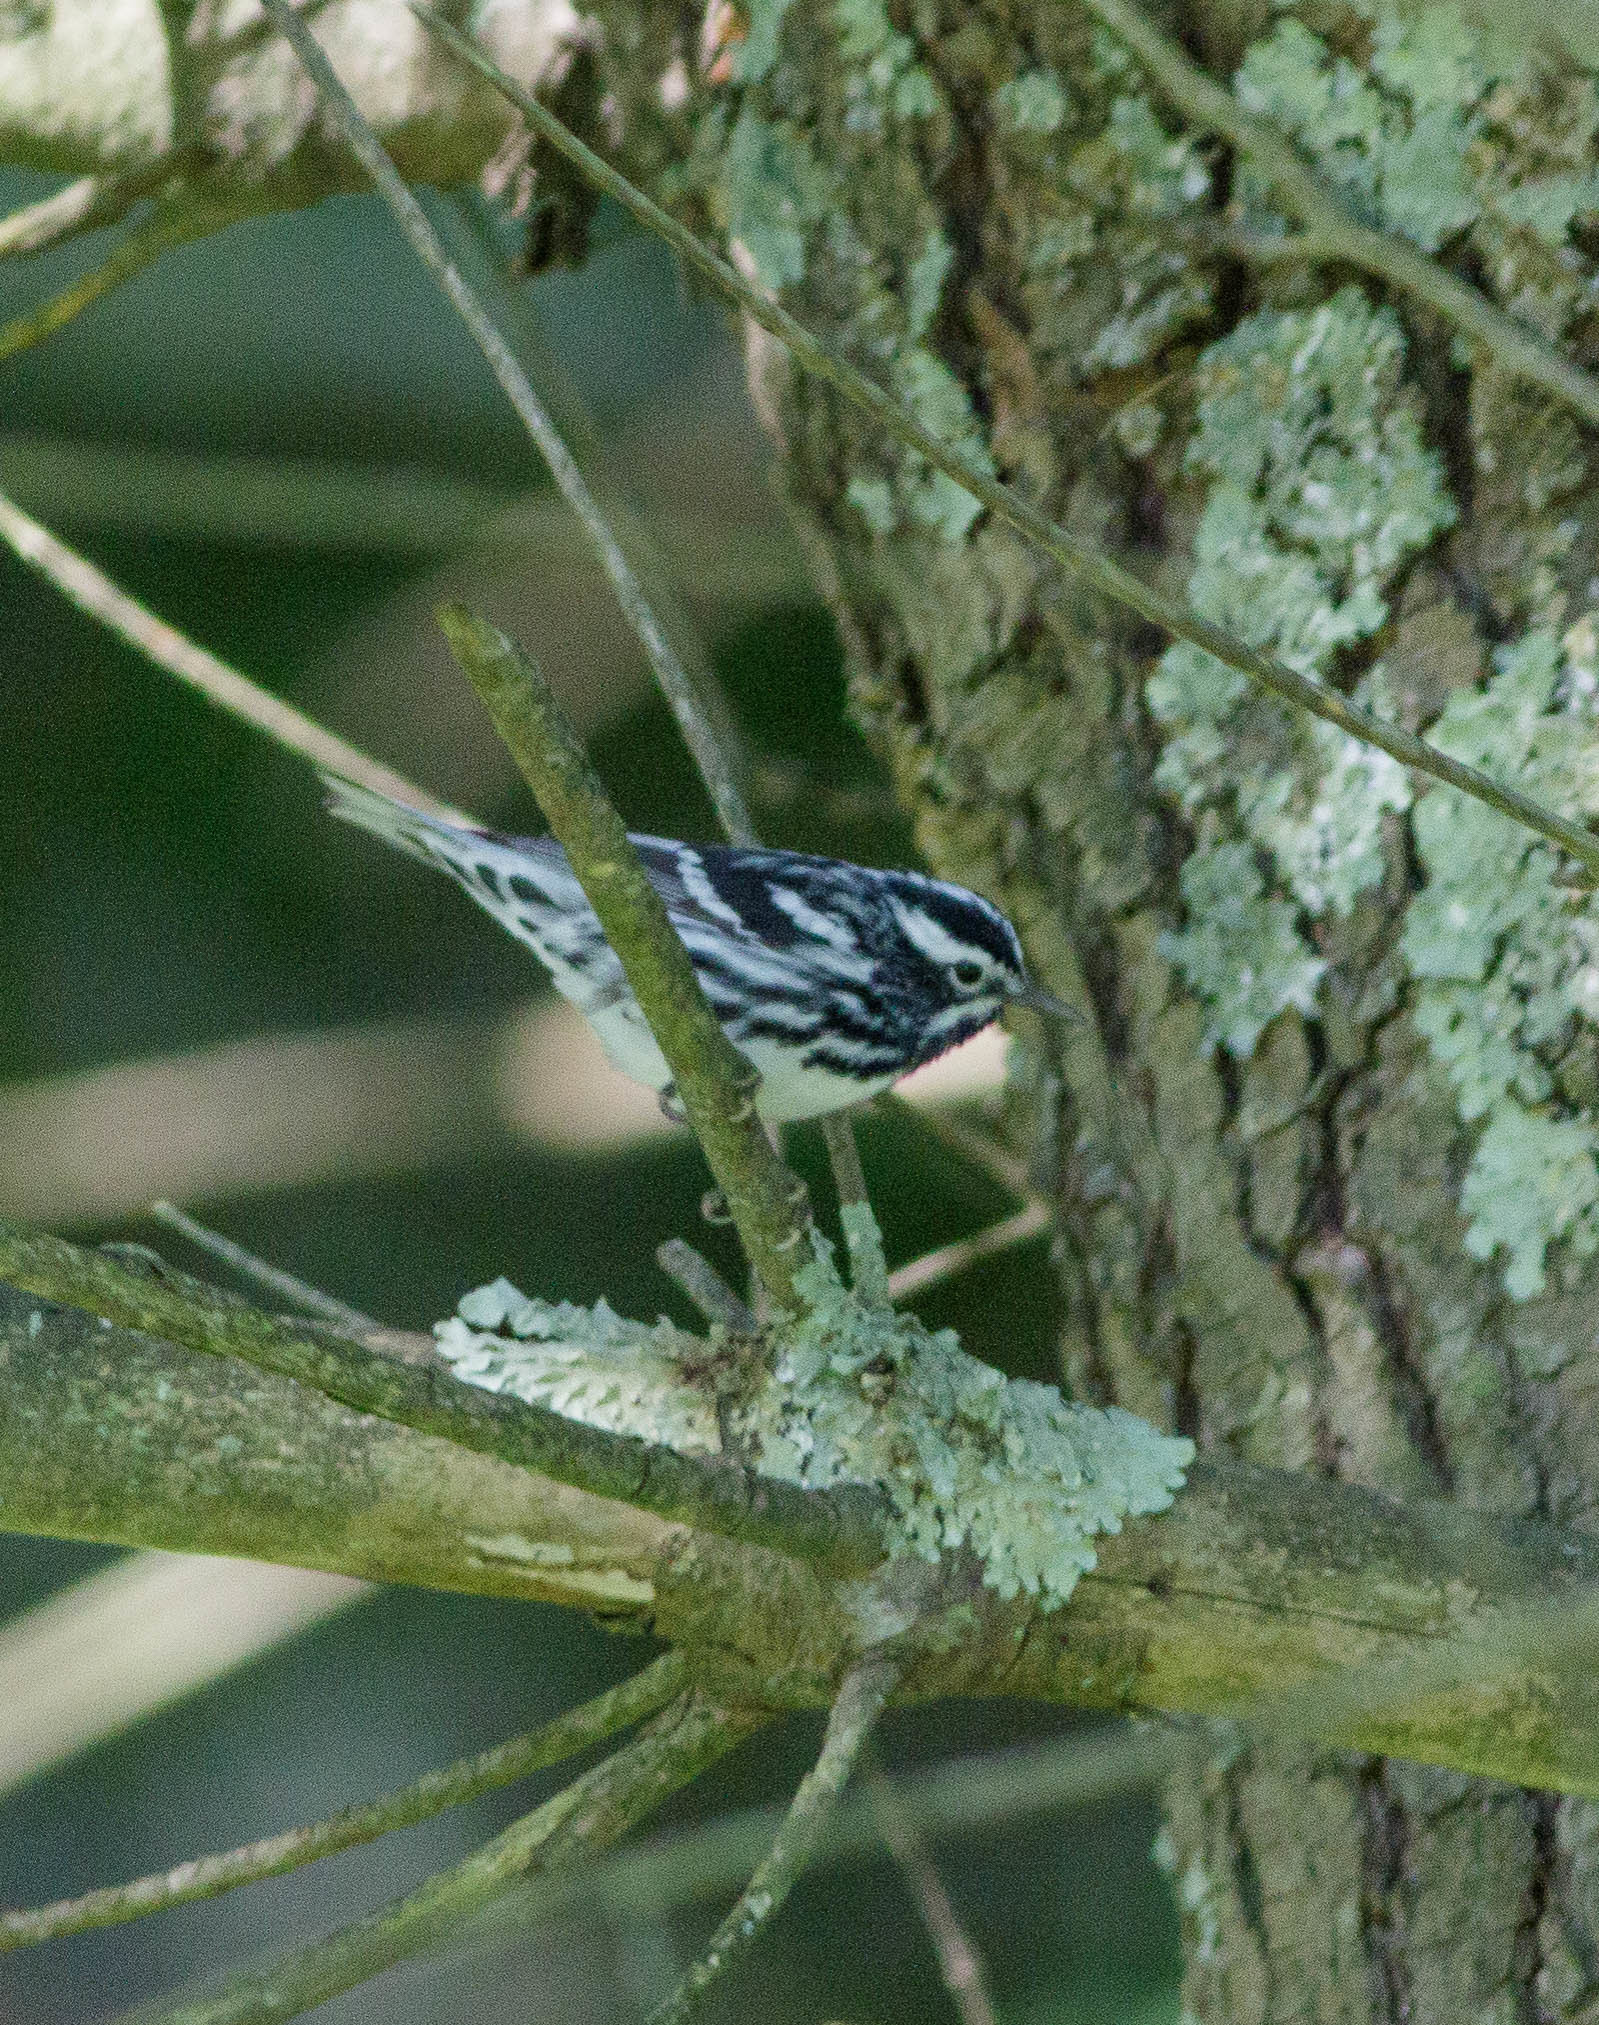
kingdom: Animalia
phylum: Chordata
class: Aves
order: Passeriformes
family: Parulidae
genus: Mniotilta
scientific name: Mniotilta varia
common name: Black-and-white warbler
